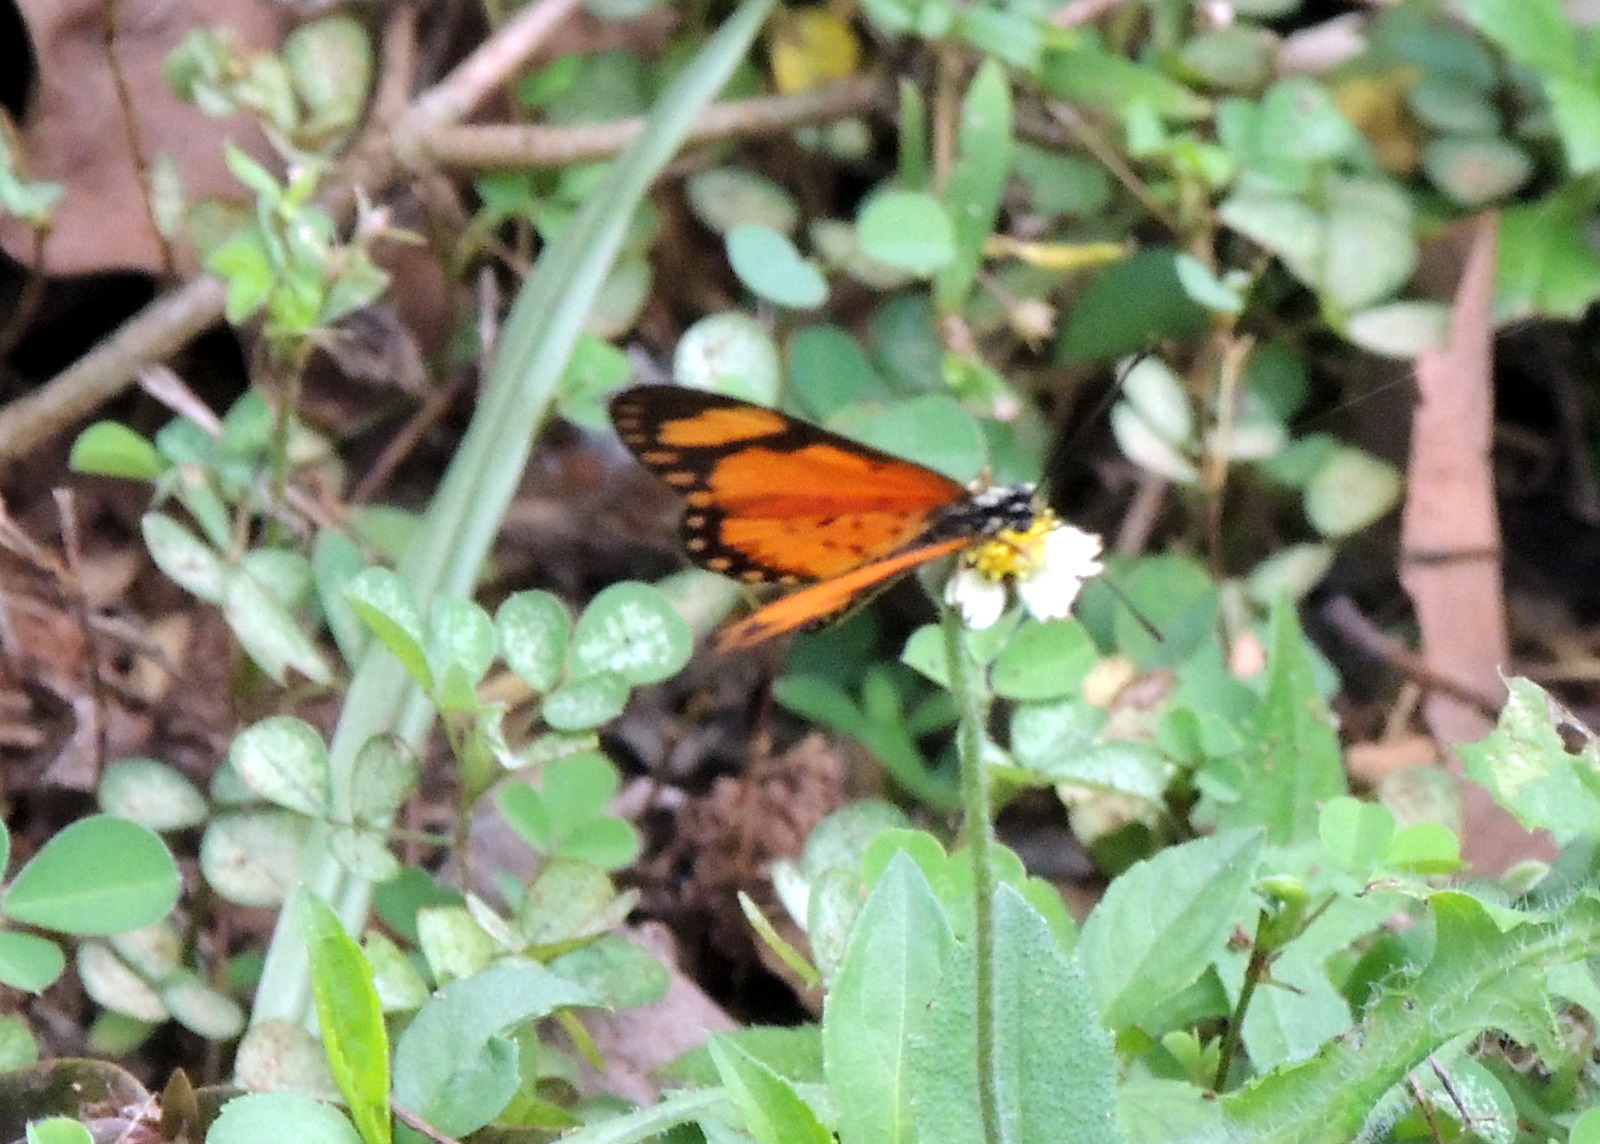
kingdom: Animalia
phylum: Arthropoda
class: Insecta
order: Lepidoptera
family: Nymphalidae
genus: Acraea
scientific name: Acraea Telchinia serena
